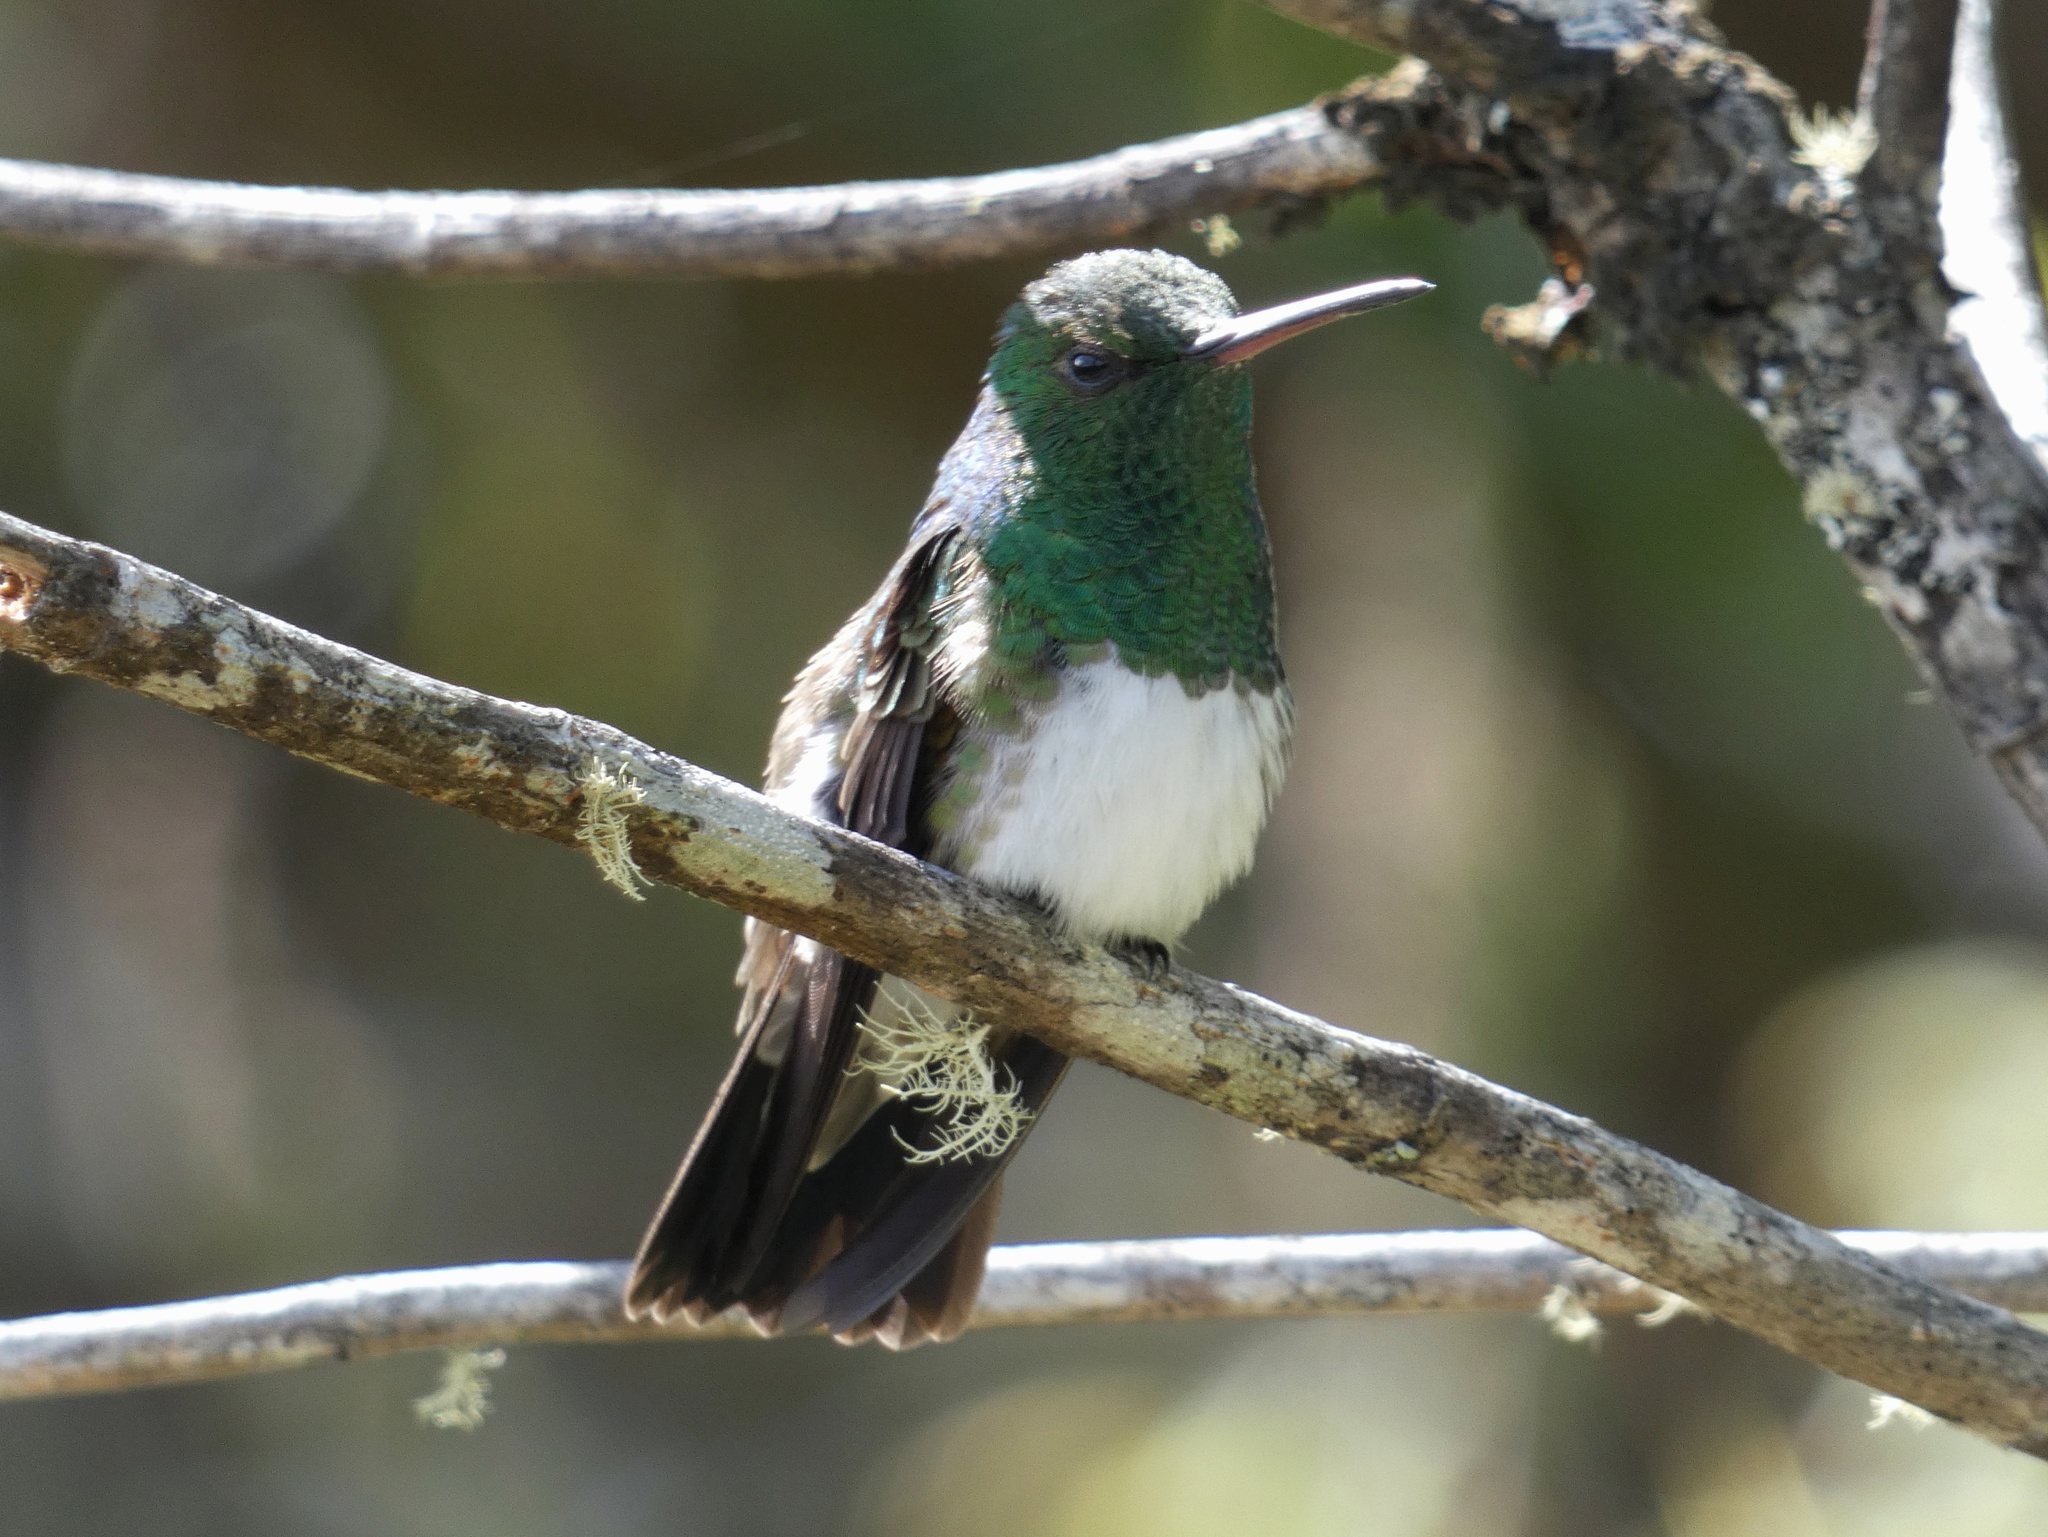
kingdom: Animalia
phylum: Chordata
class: Aves
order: Apodiformes
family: Trochilidae
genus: Saucerottia
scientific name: Saucerottia edward
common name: Snowy-bellied hummingbird
